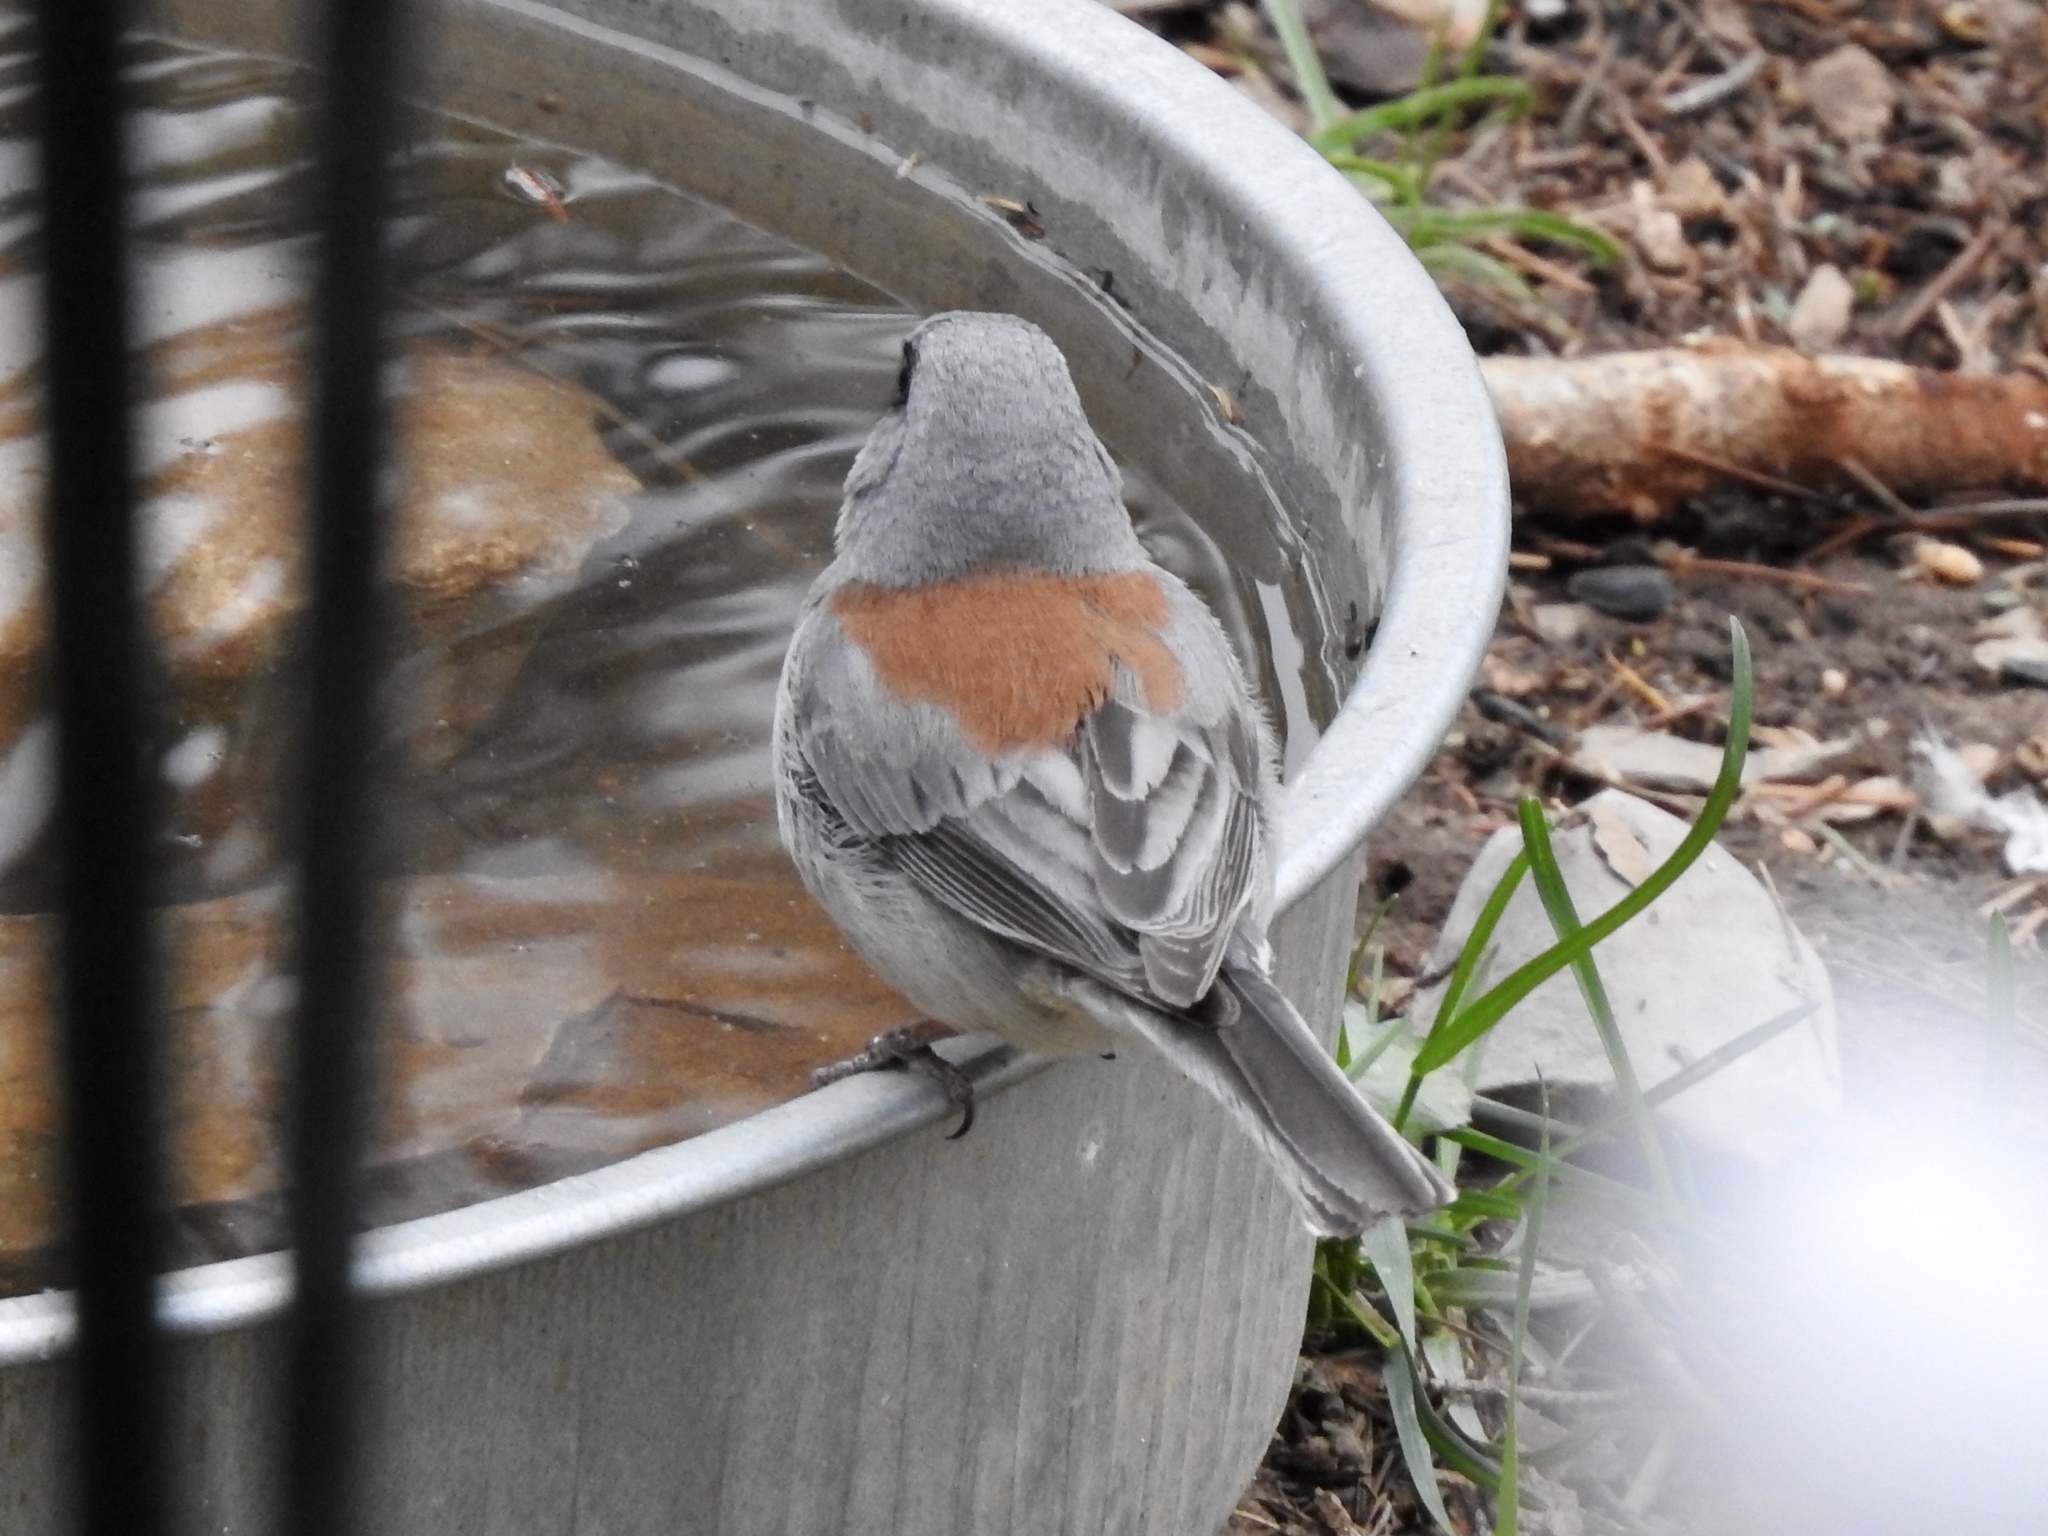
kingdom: Animalia
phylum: Chordata
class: Aves
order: Passeriformes
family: Passerellidae
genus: Junco
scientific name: Junco hyemalis
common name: Dark-eyed junco
